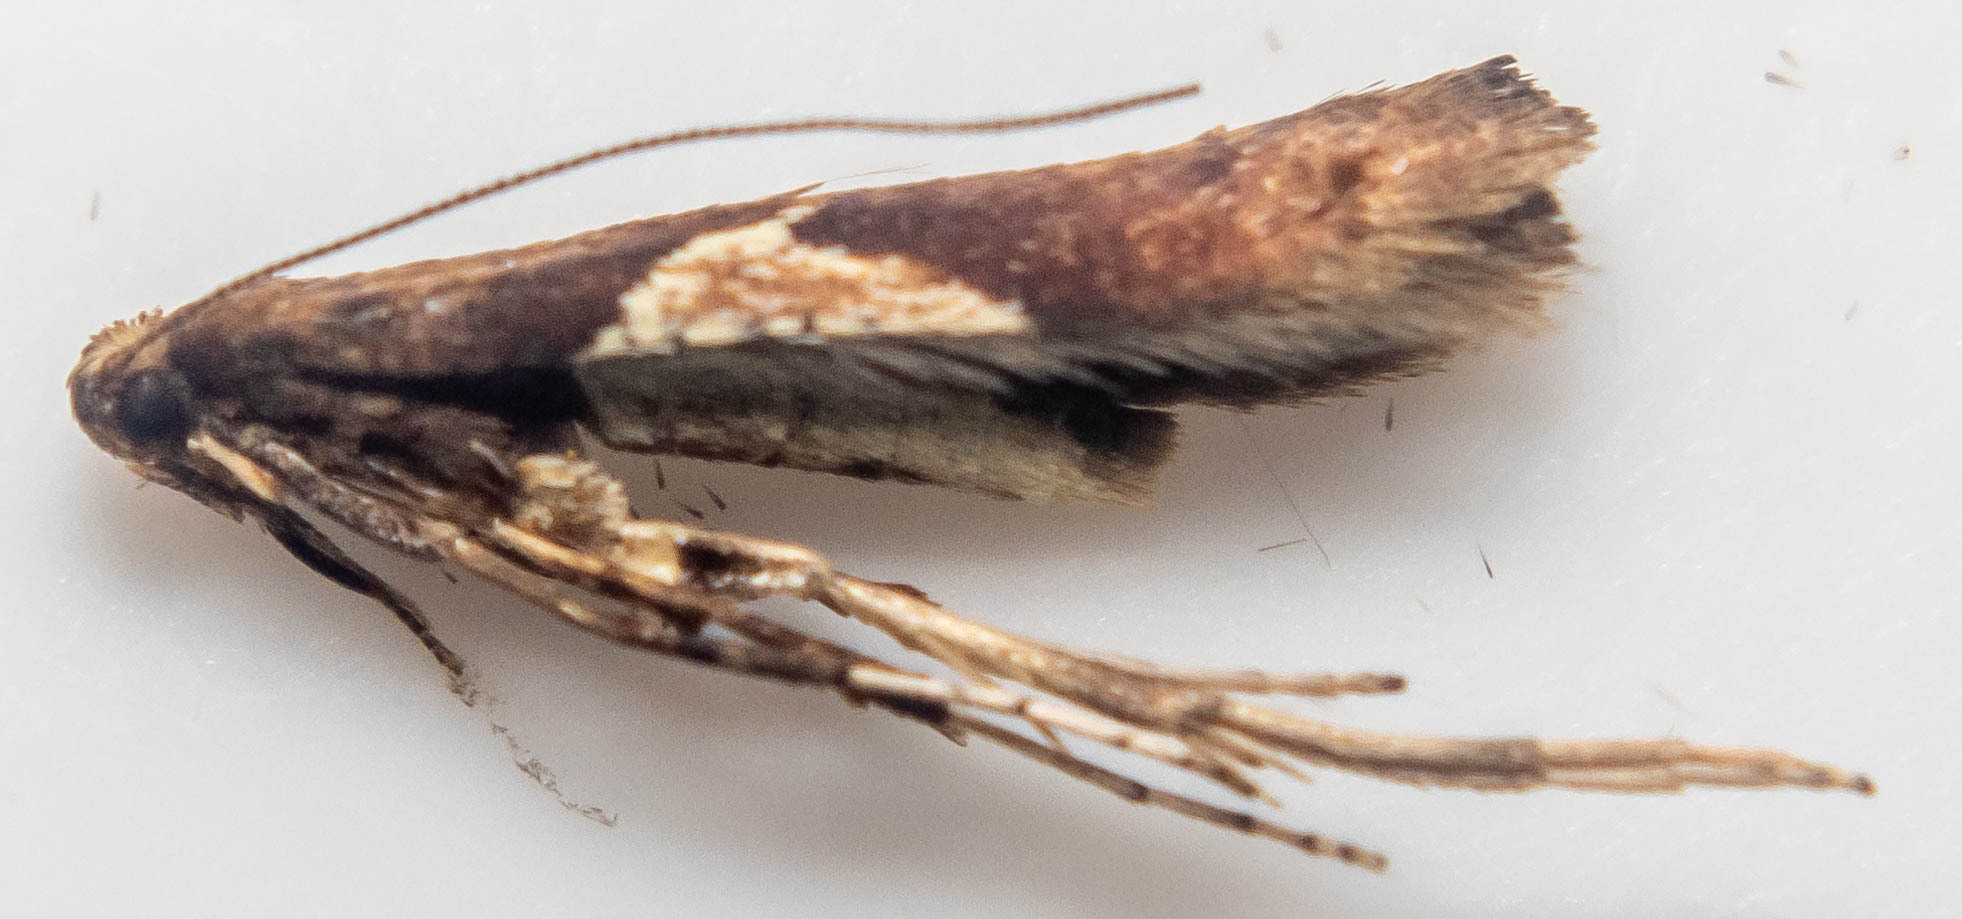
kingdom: Animalia
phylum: Arthropoda
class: Insecta
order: Lepidoptera
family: Gracillariidae
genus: Caloptilia
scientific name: Caloptilia stigmatella
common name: White-triangle slender
